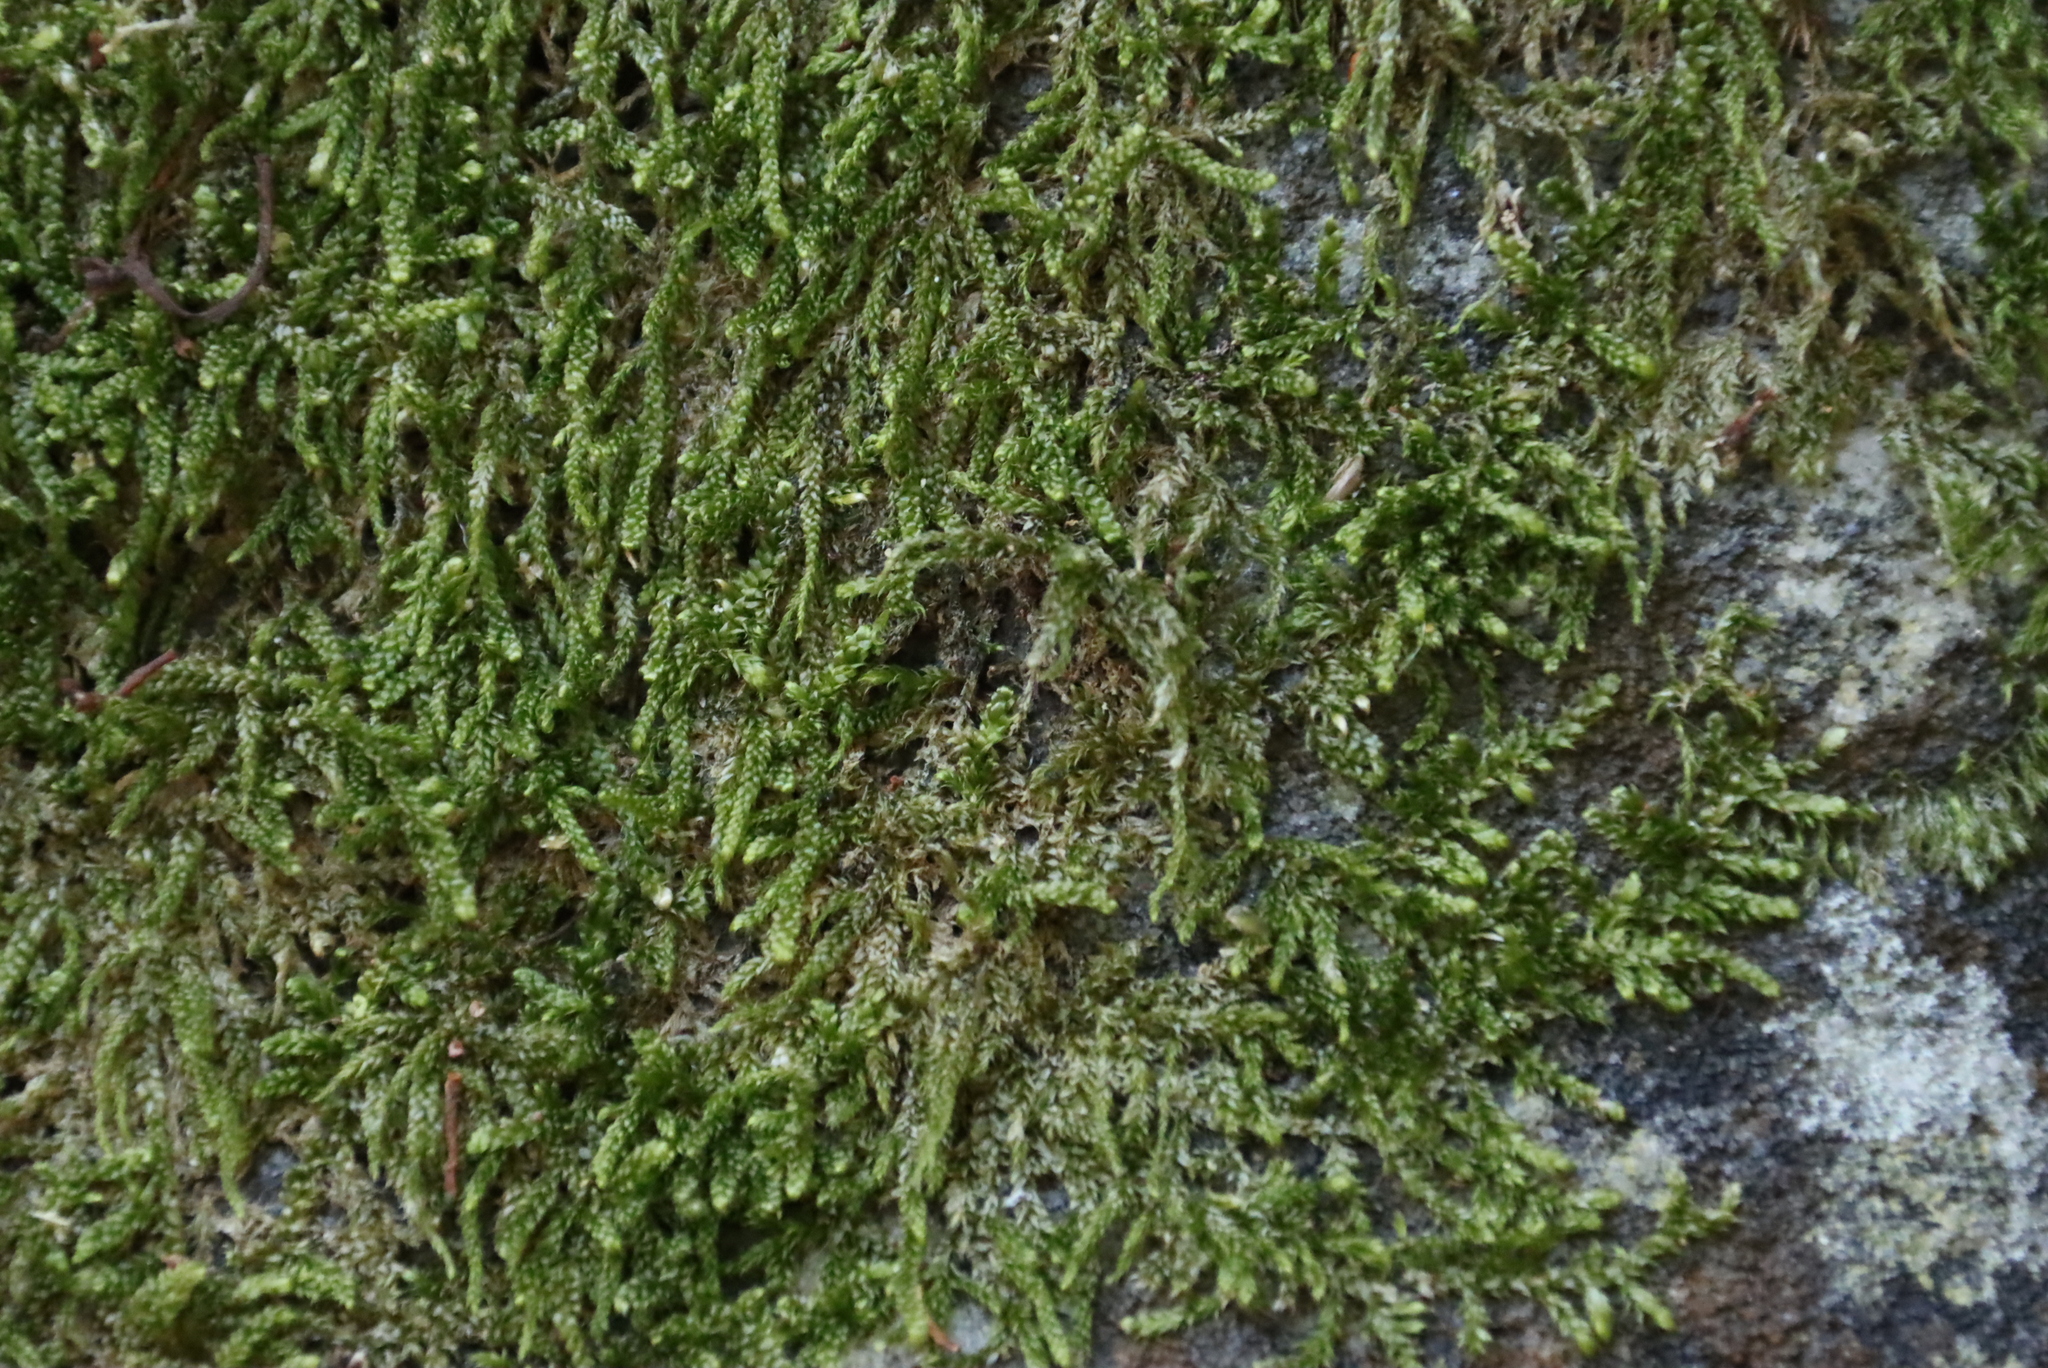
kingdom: Plantae
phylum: Bryophyta
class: Bryopsida
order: Hypnales
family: Hypnaceae
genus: Hypnum
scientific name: Hypnum cupressiforme
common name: Cypress-leaved plait-moss
